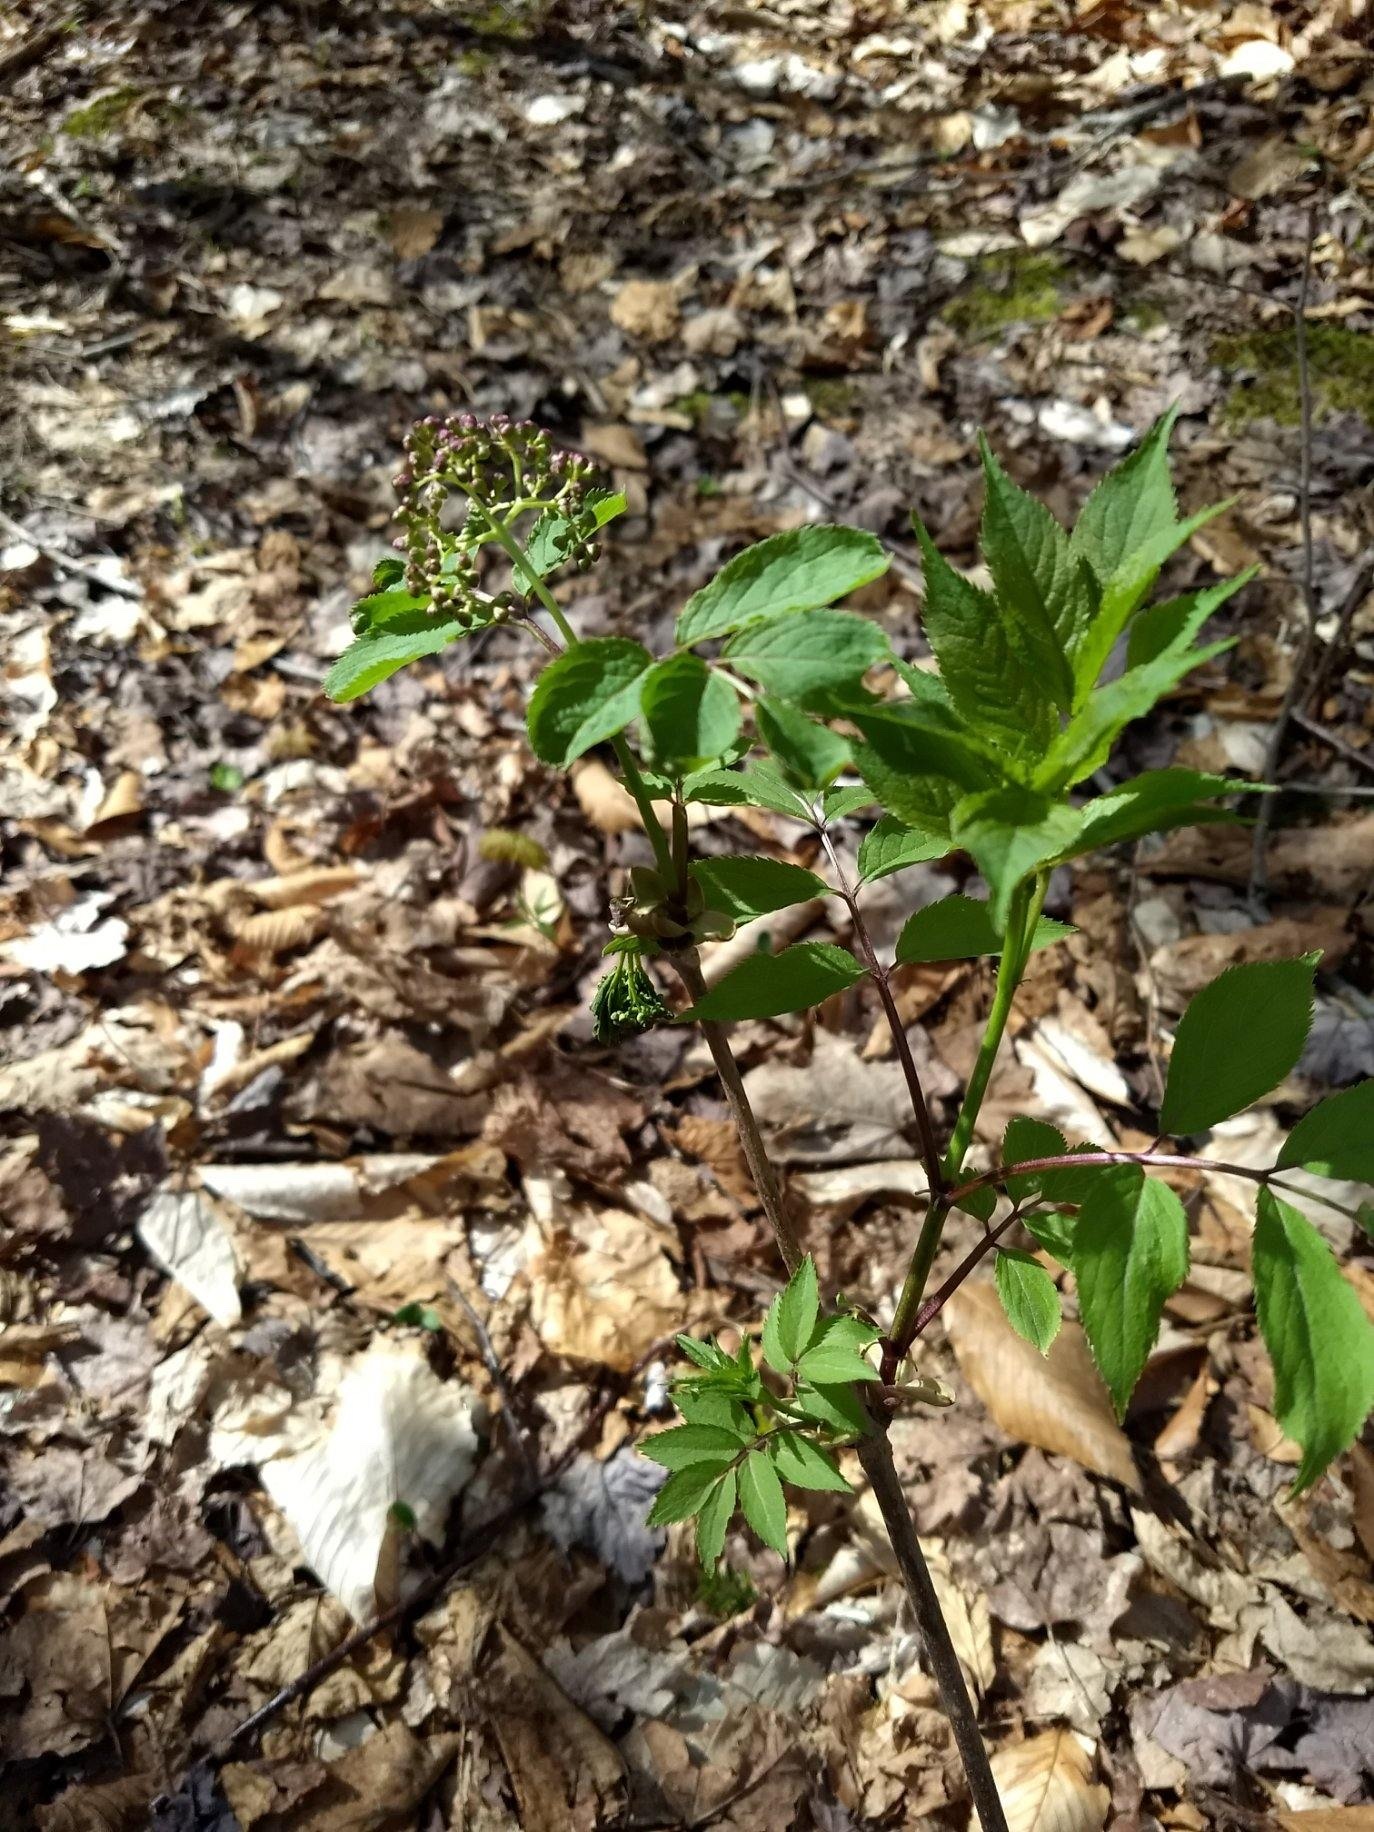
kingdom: Plantae
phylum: Tracheophyta
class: Magnoliopsida
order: Dipsacales
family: Viburnaceae
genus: Sambucus
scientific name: Sambucus racemosa
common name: Red-berried elder
